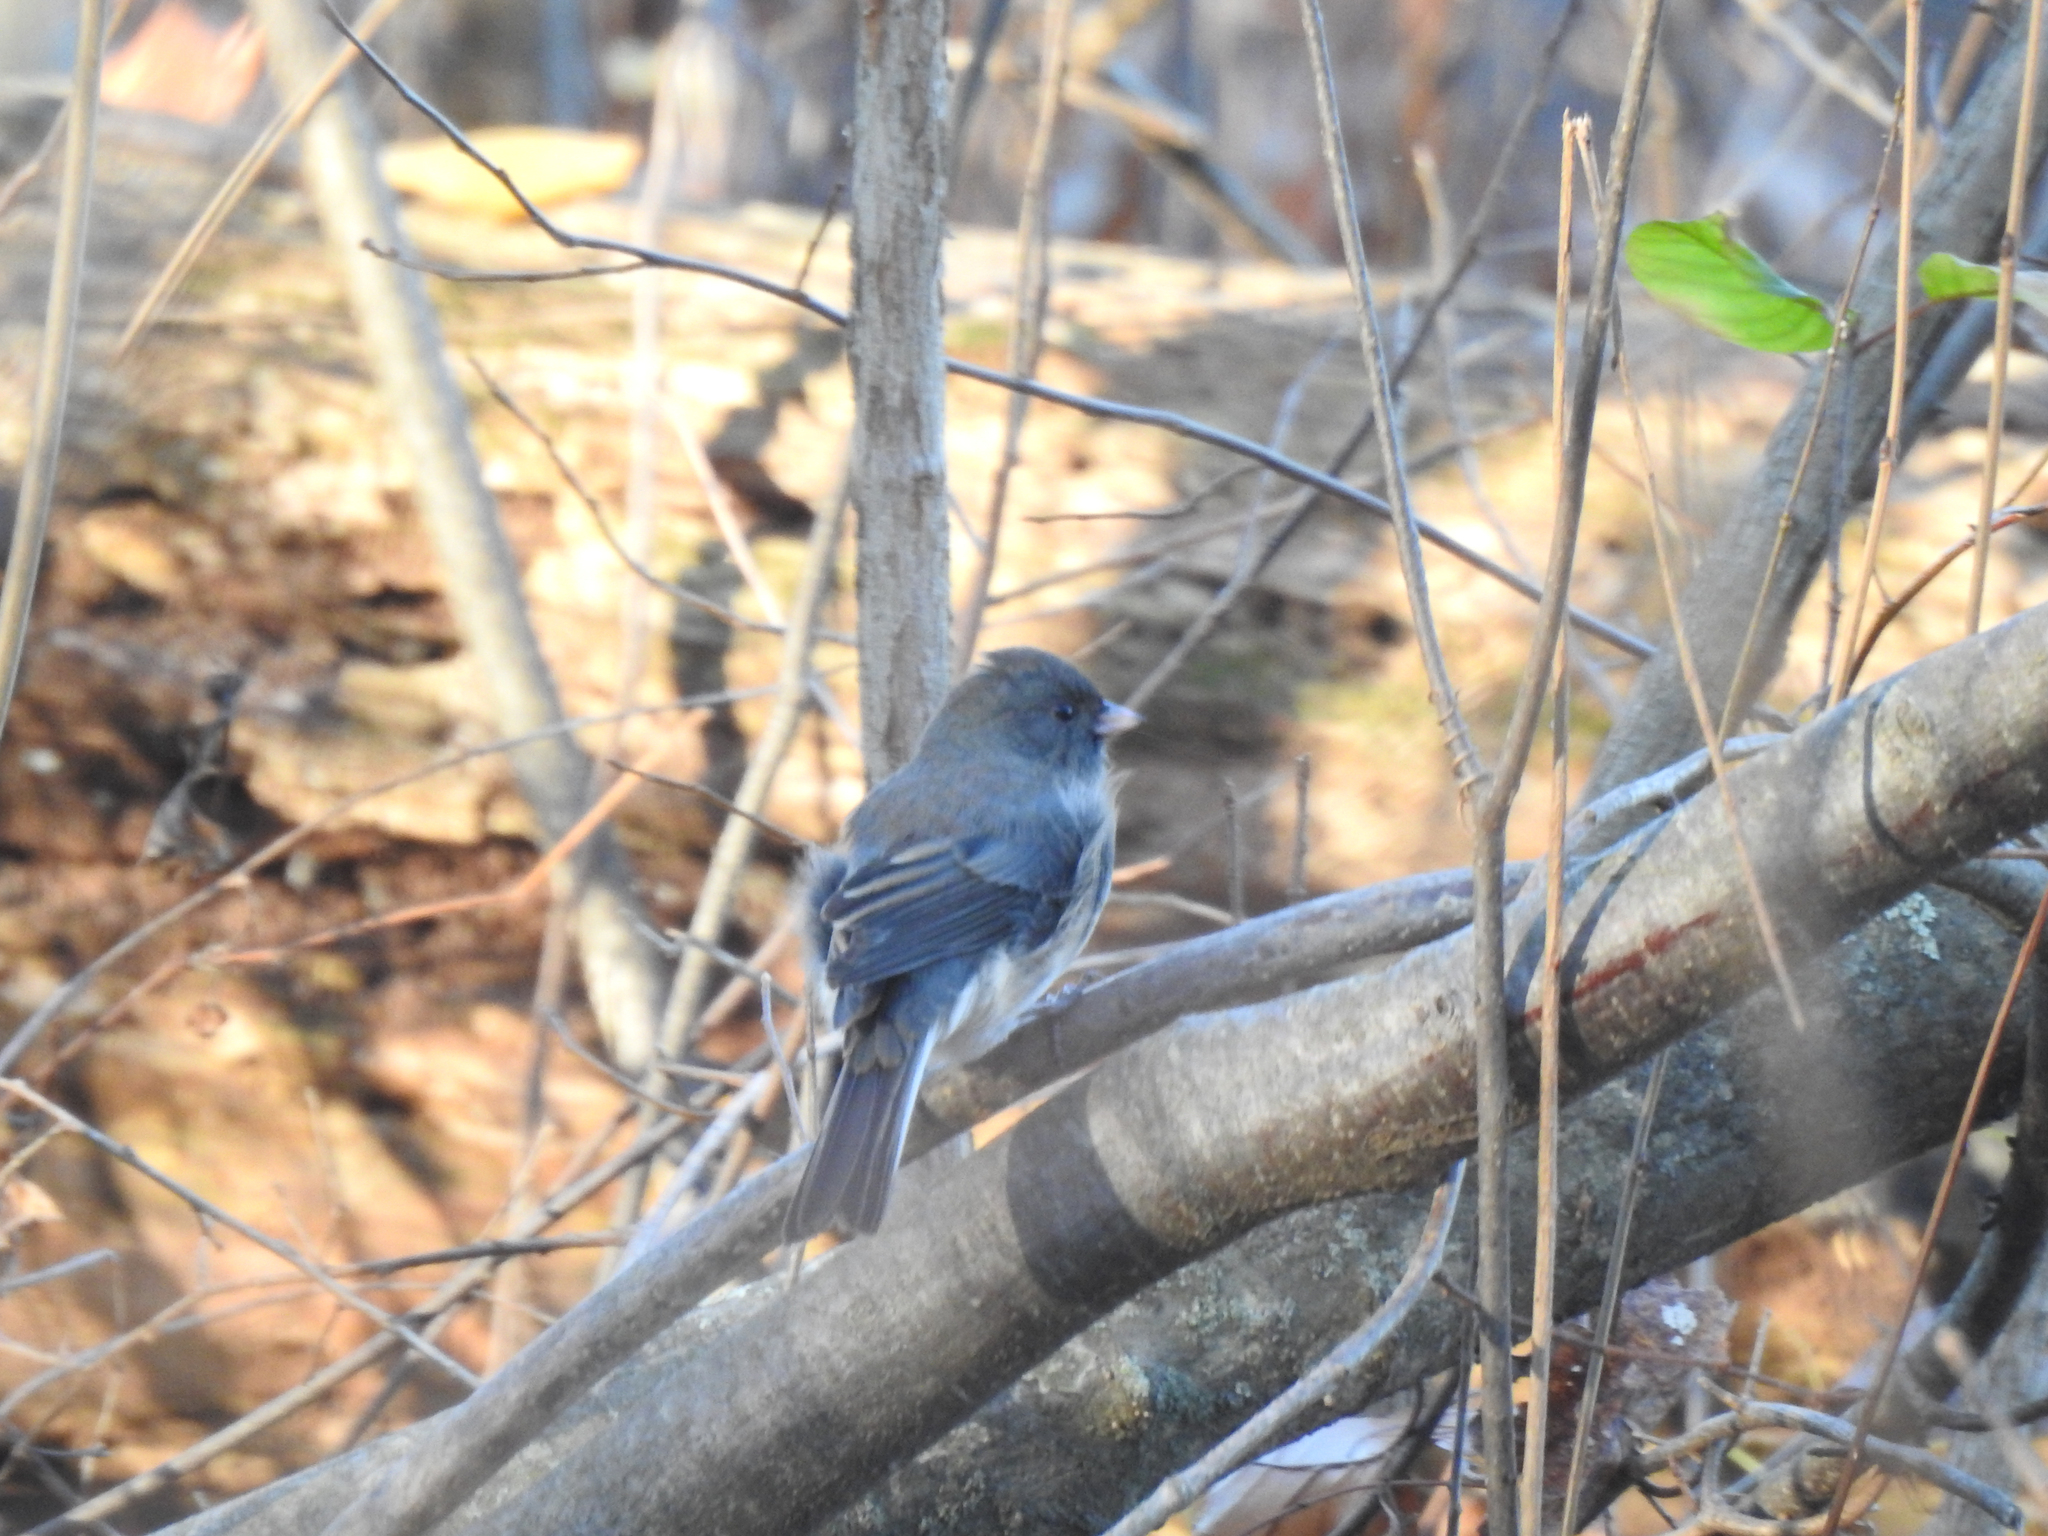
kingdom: Animalia
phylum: Chordata
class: Aves
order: Passeriformes
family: Passerellidae
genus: Junco
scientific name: Junco hyemalis
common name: Dark-eyed junco
